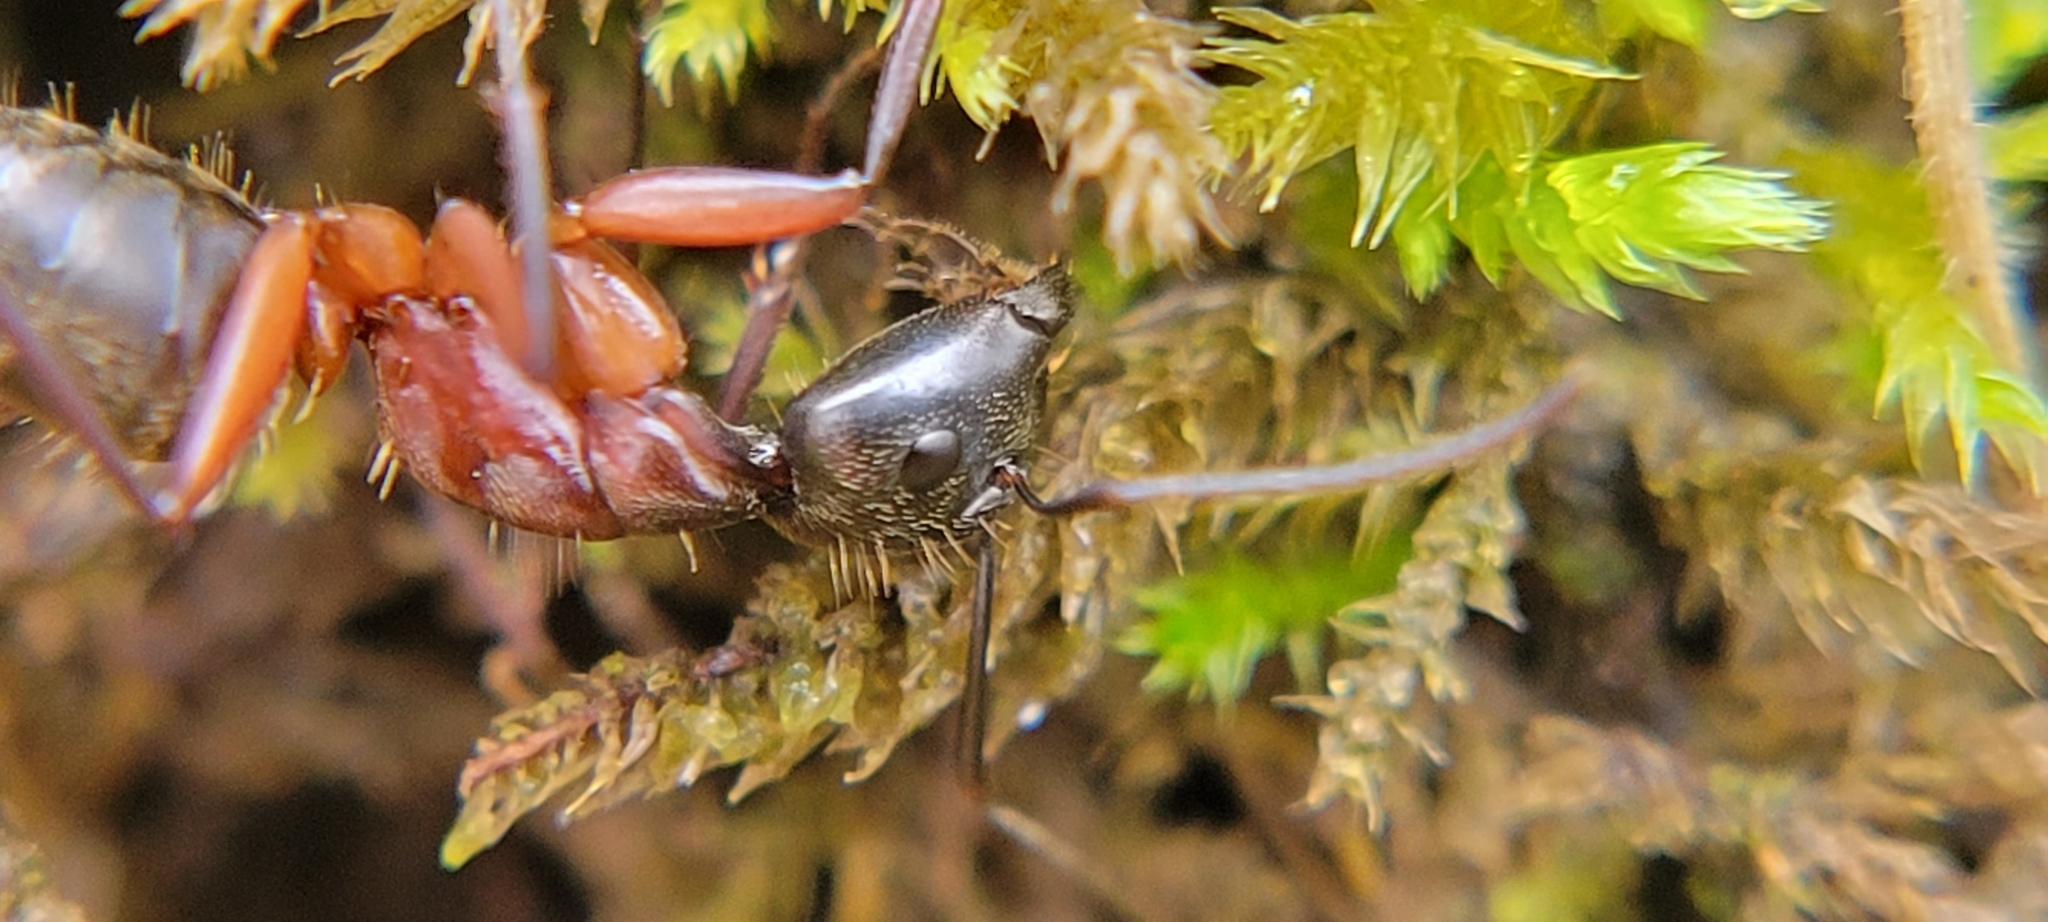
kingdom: Animalia
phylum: Arthropoda
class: Insecta
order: Hymenoptera
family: Formicidae
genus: Camponotus
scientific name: Camponotus chromaiodes
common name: Red carpenter ant
